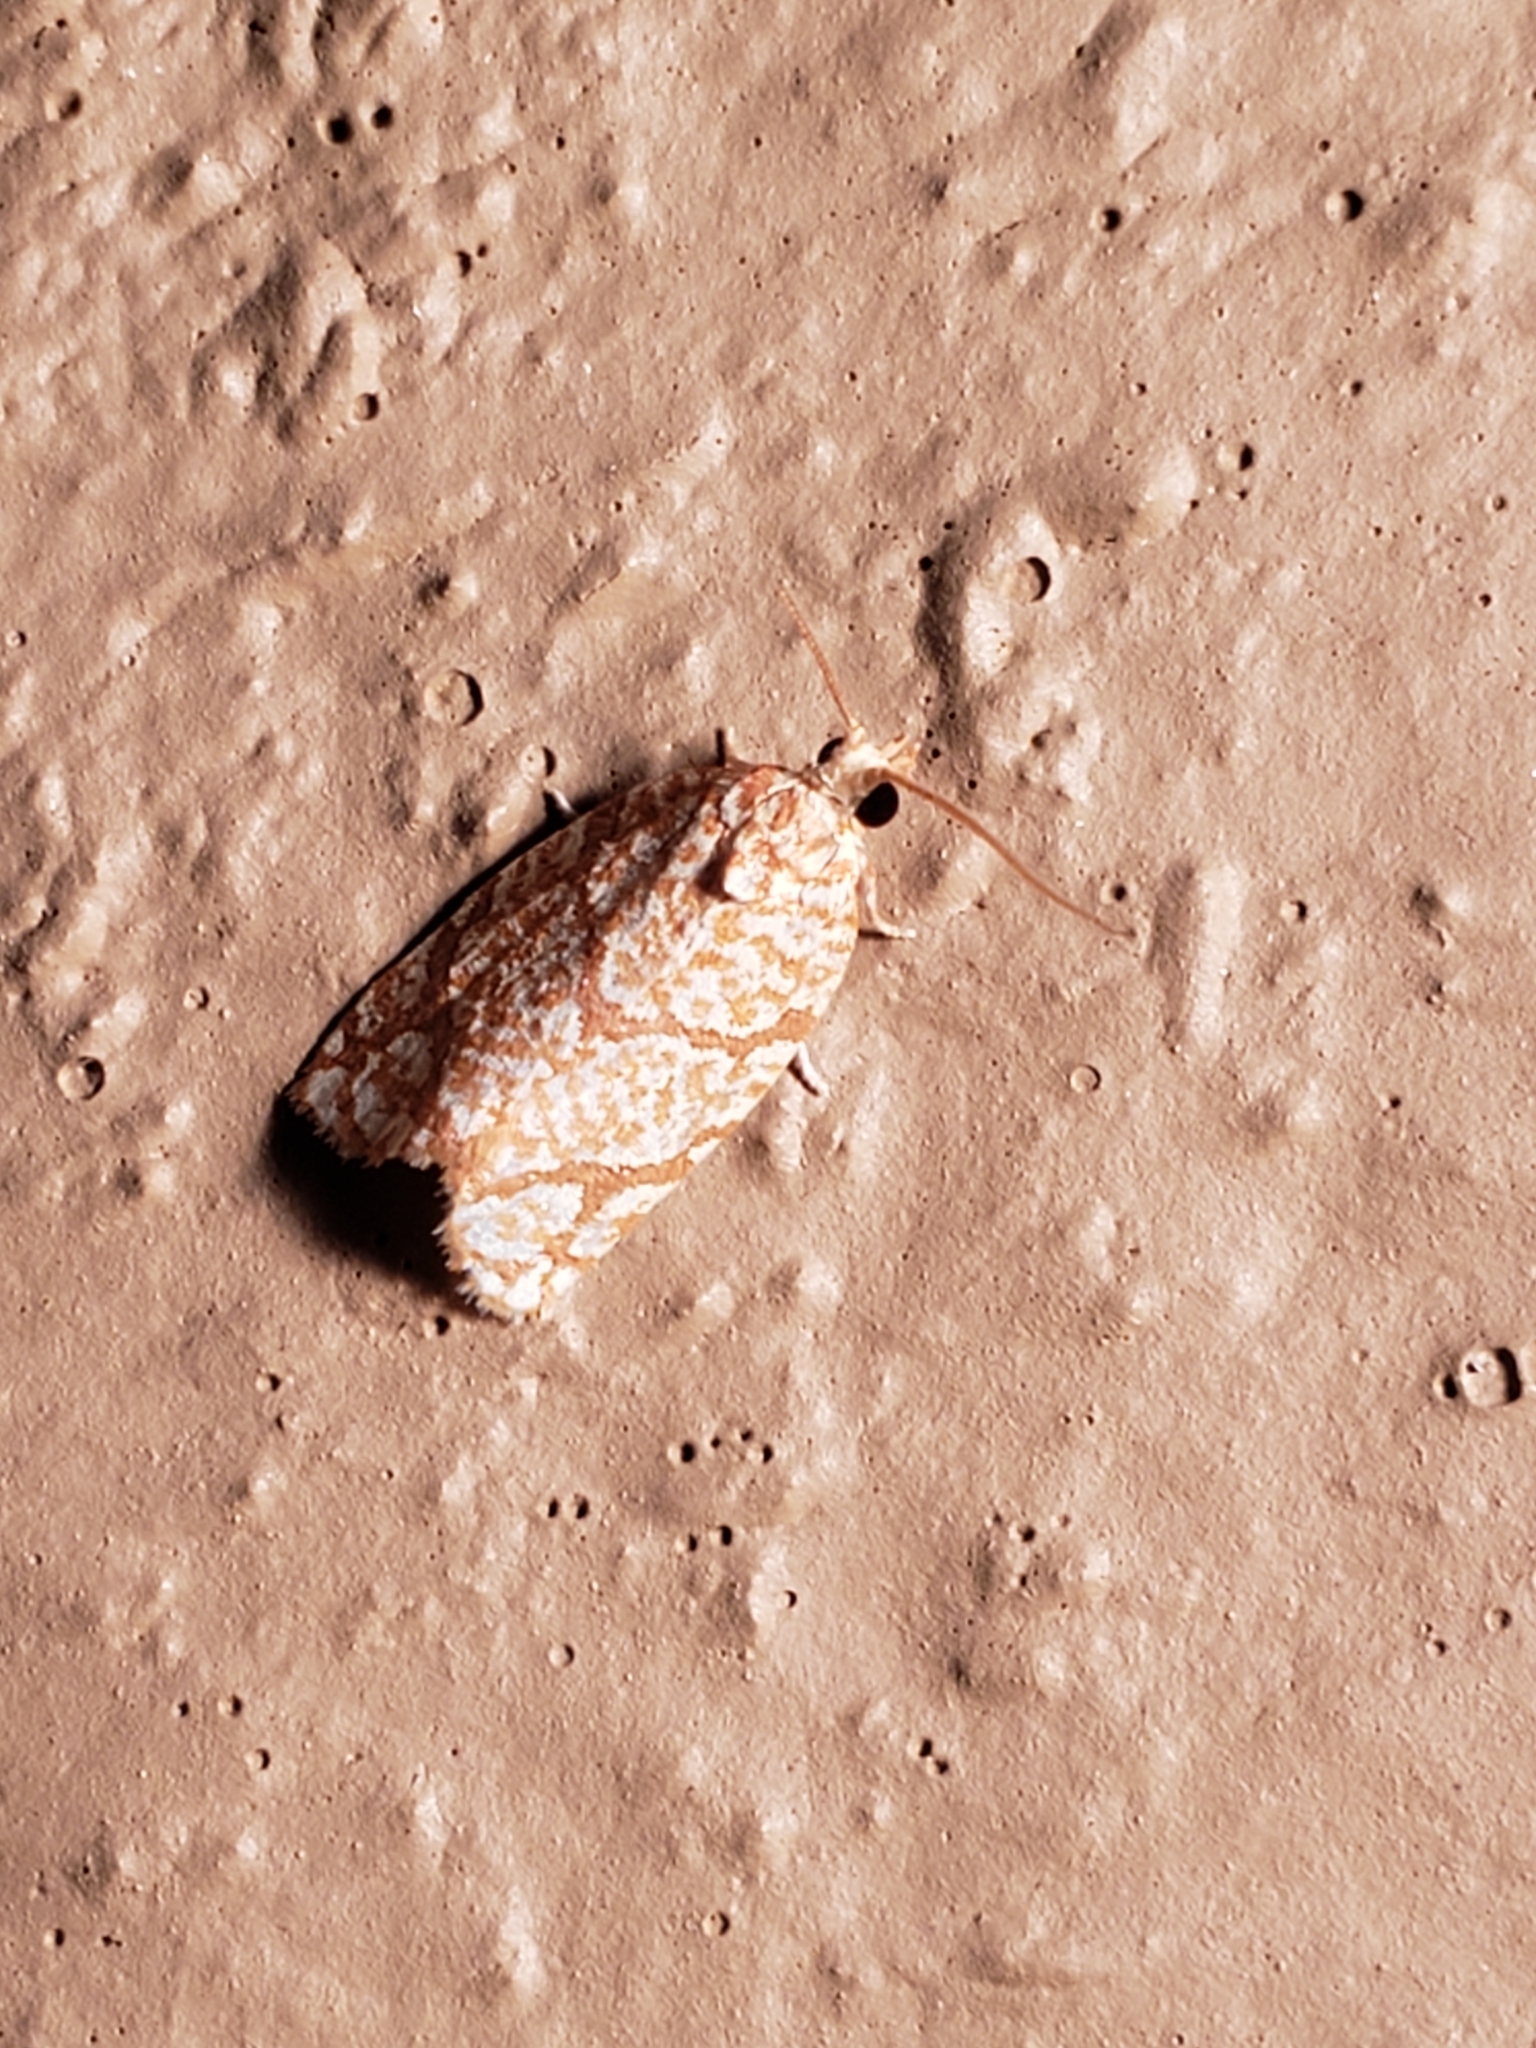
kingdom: Animalia
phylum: Arthropoda
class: Insecta
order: Lepidoptera
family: Tortricidae
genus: Argyrotaenia
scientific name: Argyrotaenia quercifoliana
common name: Yellow-winged oak leafroller moth
